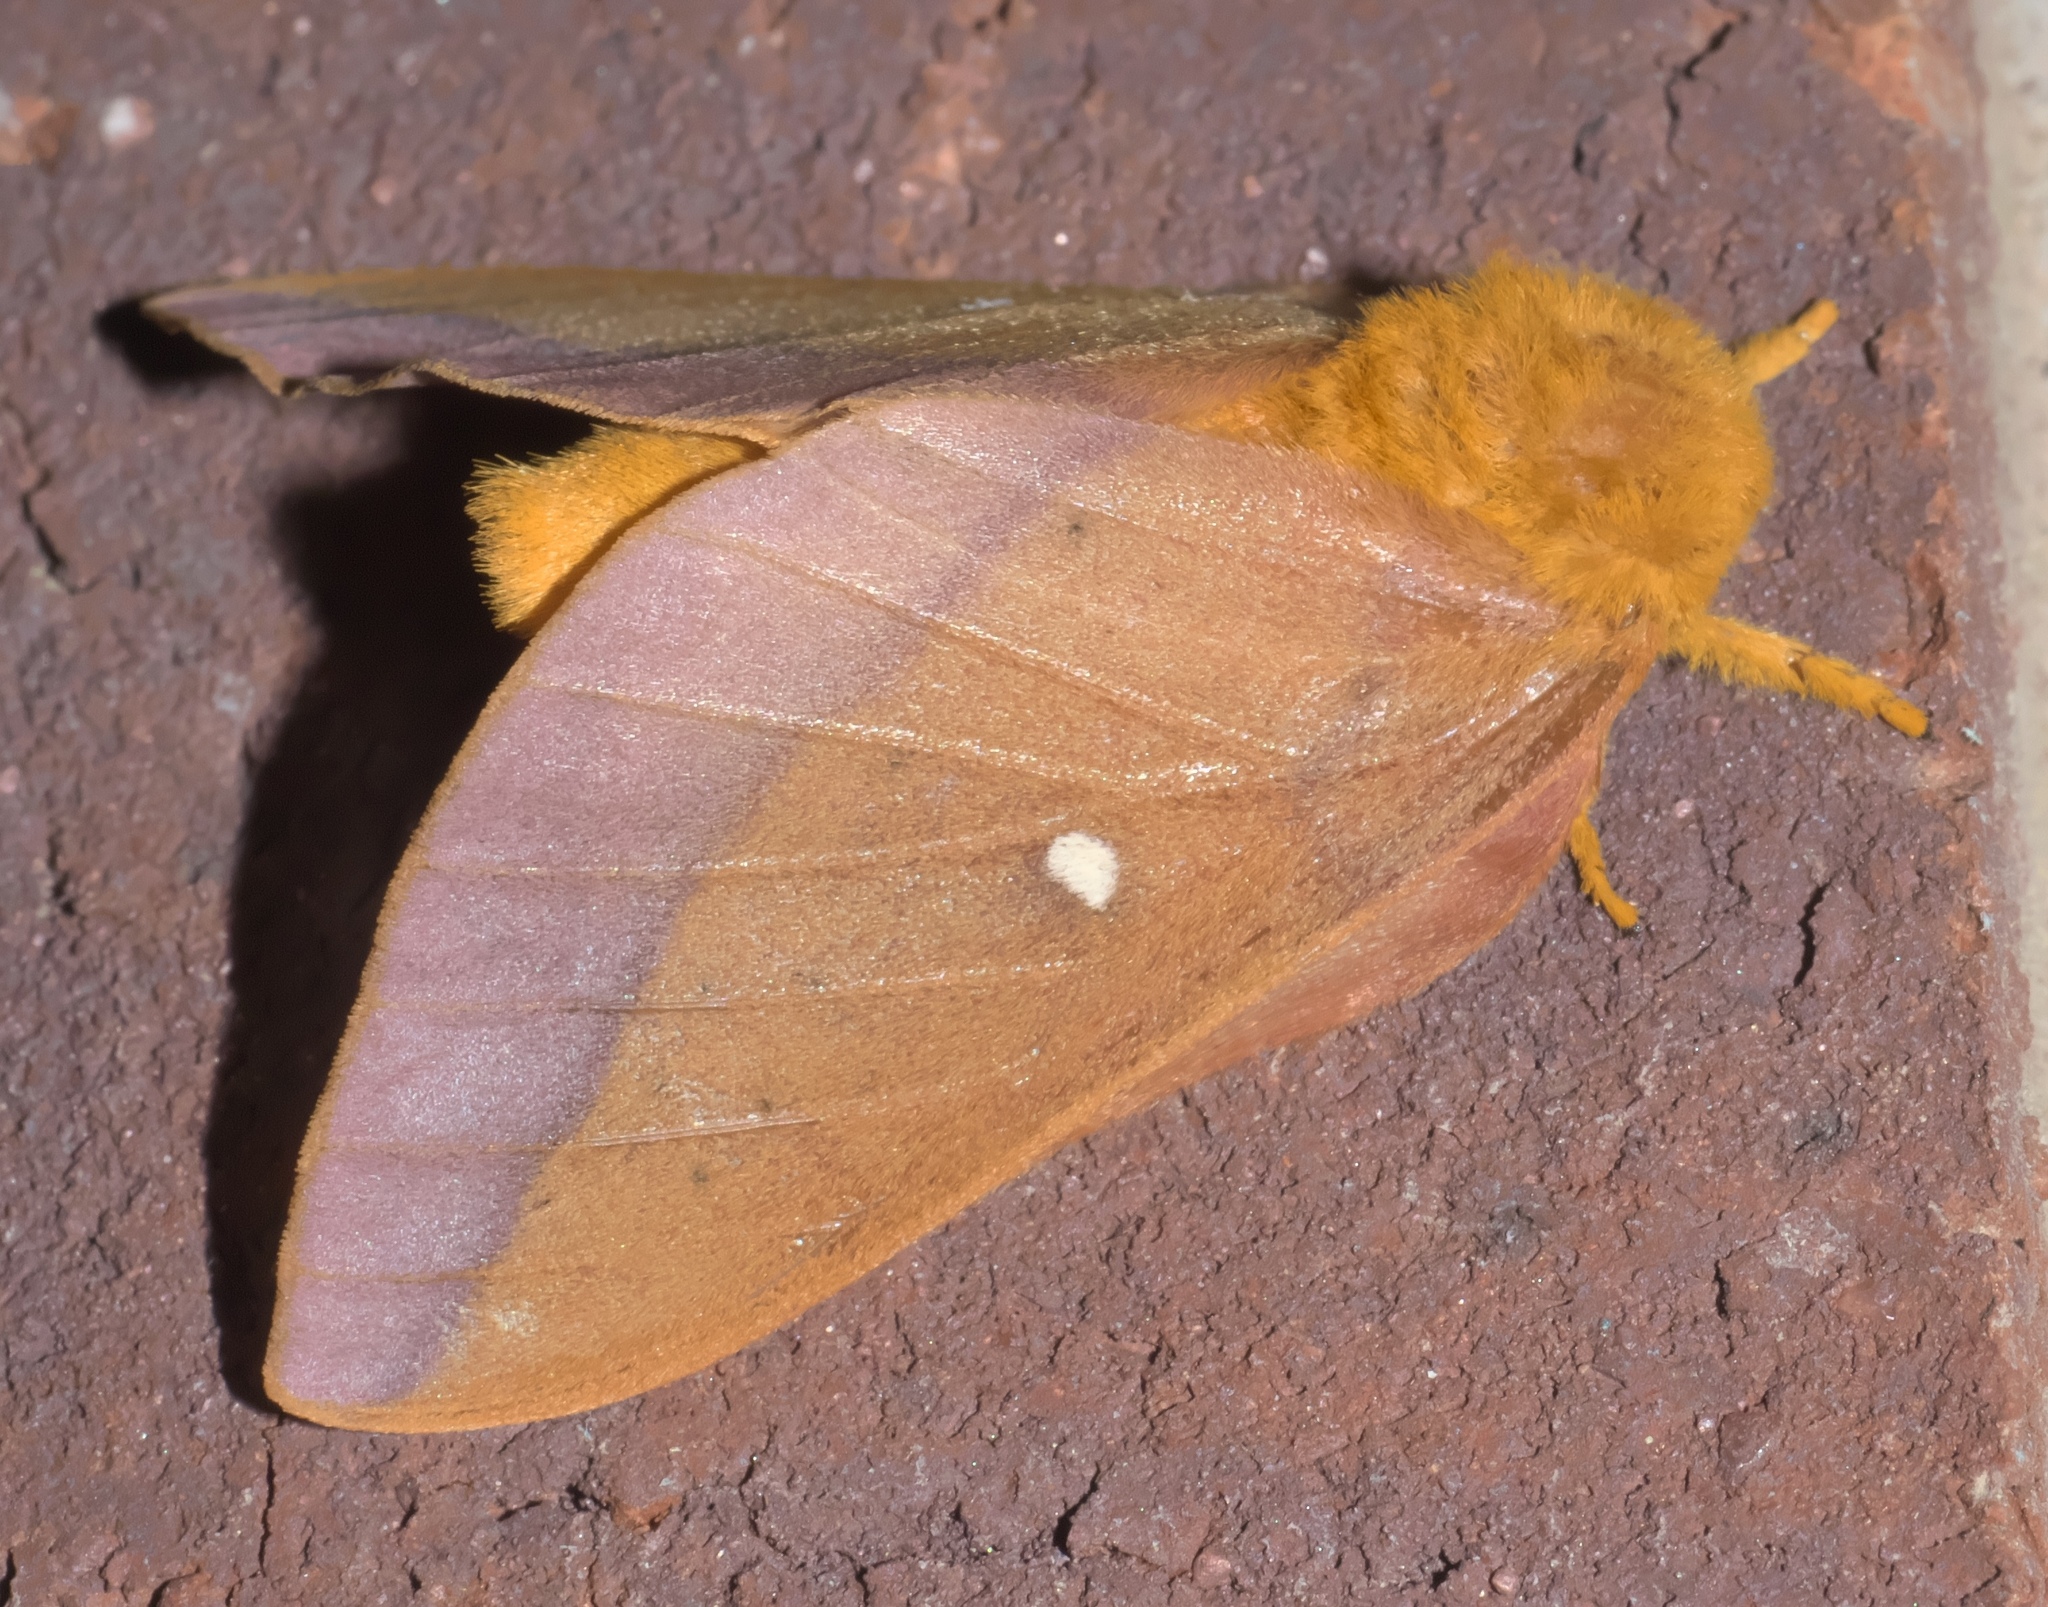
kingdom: Animalia
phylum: Arthropoda
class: Insecta
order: Lepidoptera
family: Saturniidae
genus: Anisota
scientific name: Anisota virginiensis
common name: Pink striped oakworm moth
